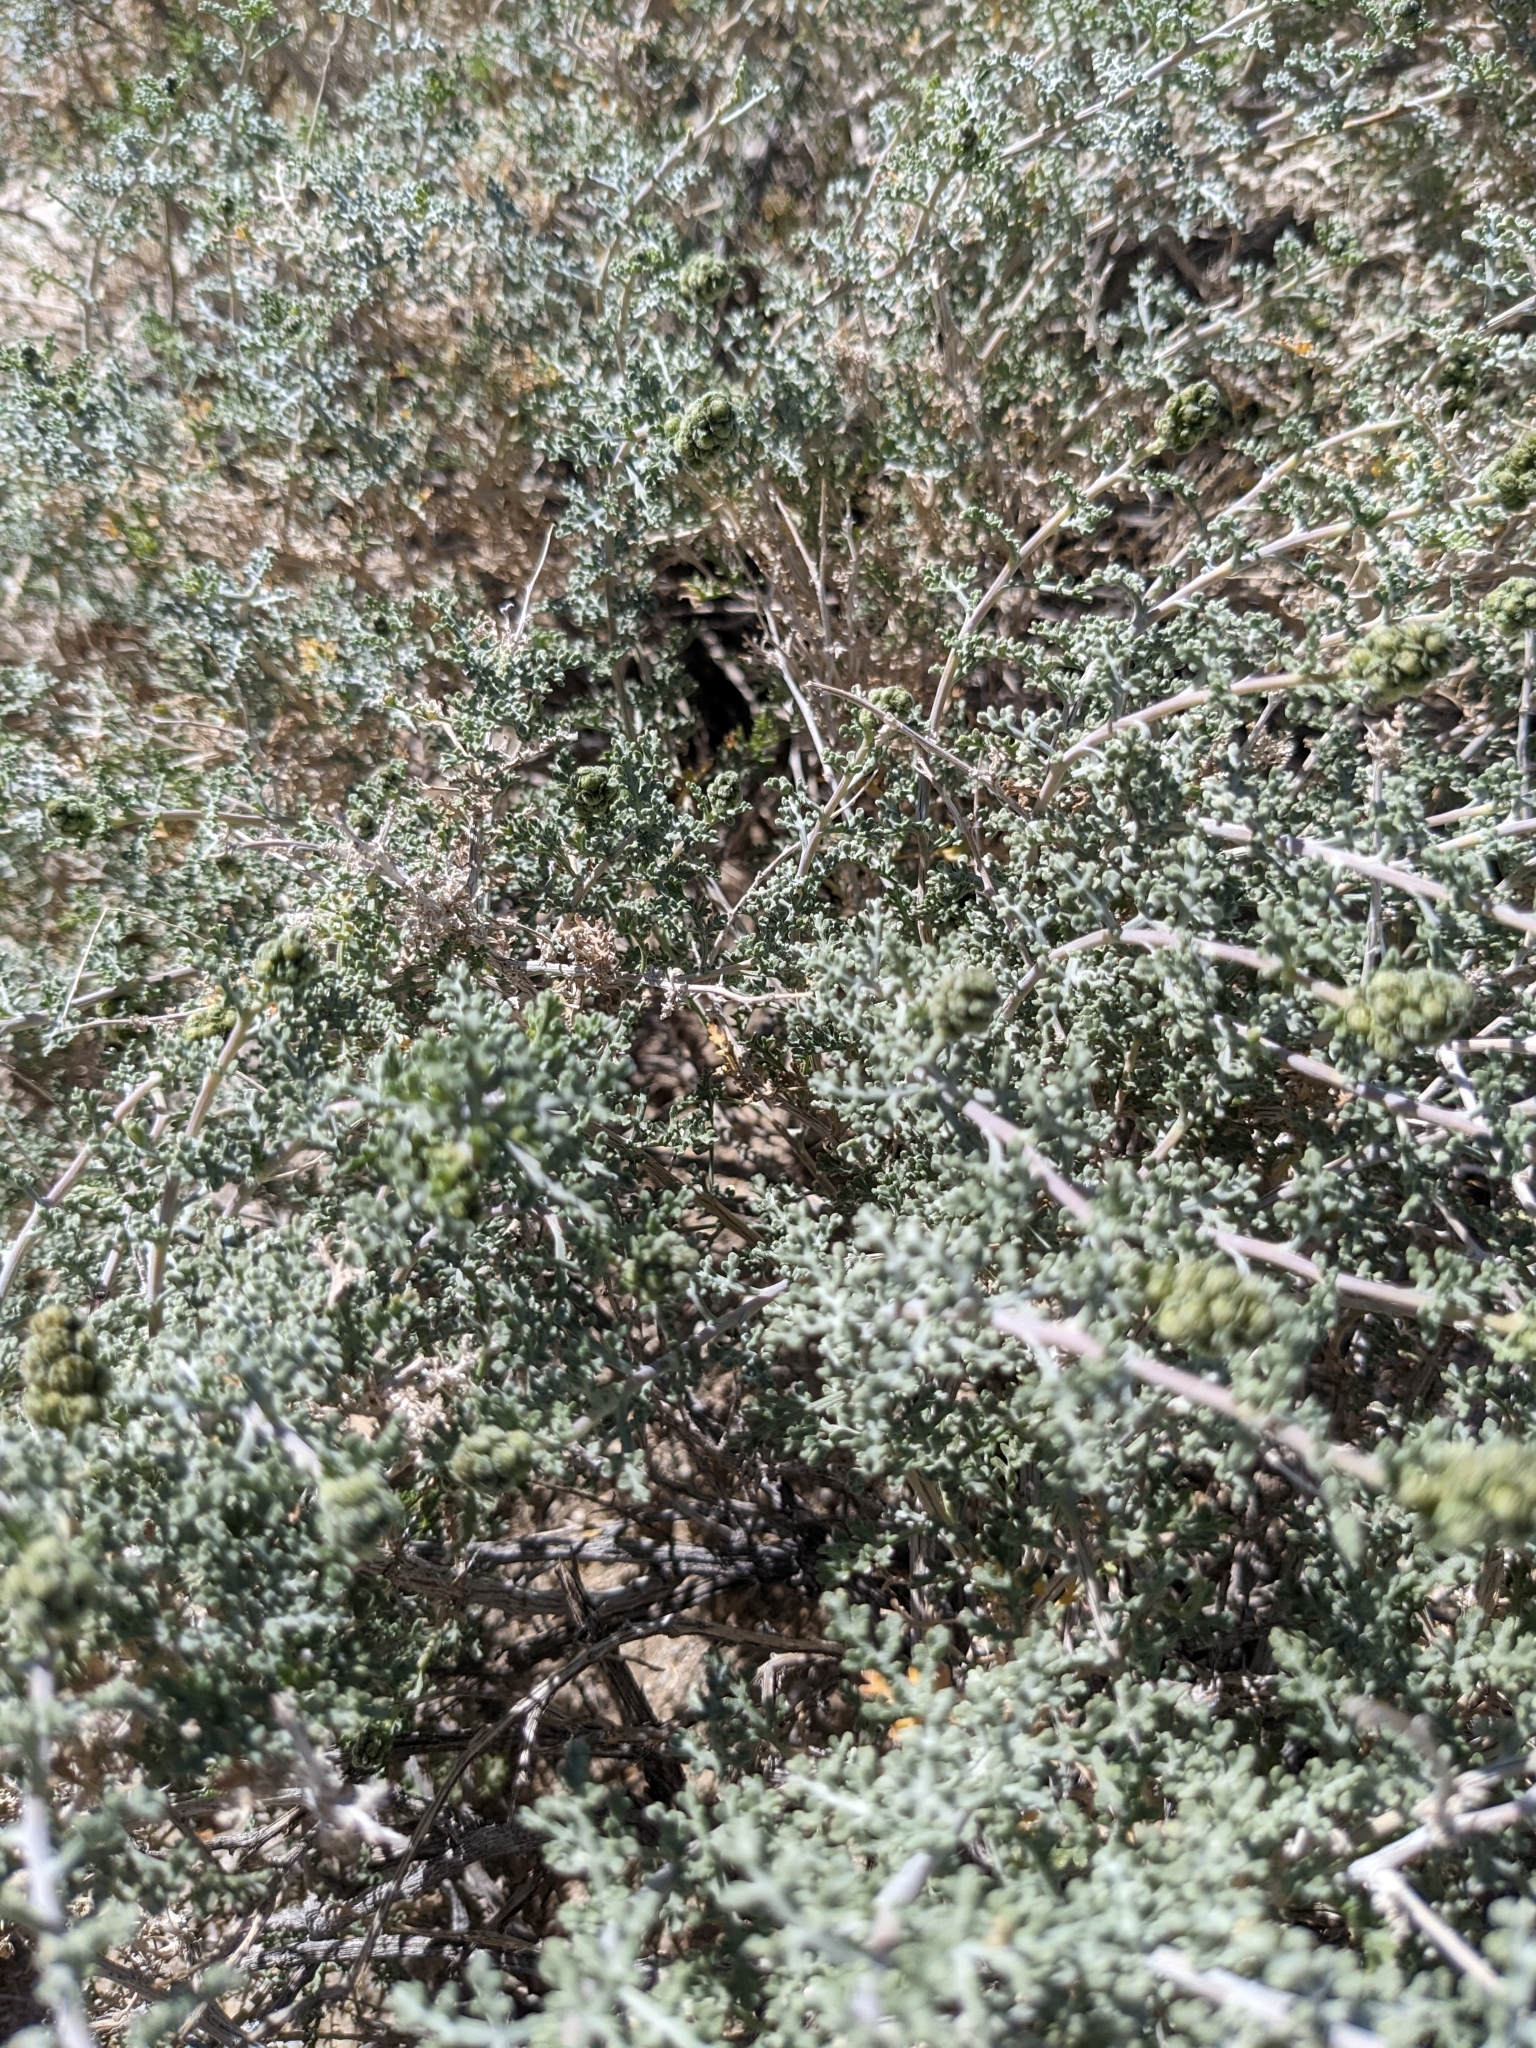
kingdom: Plantae
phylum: Tracheophyta
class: Magnoliopsida
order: Asterales
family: Asteraceae
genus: Ambrosia
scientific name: Ambrosia dumosa
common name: Bur-sage
